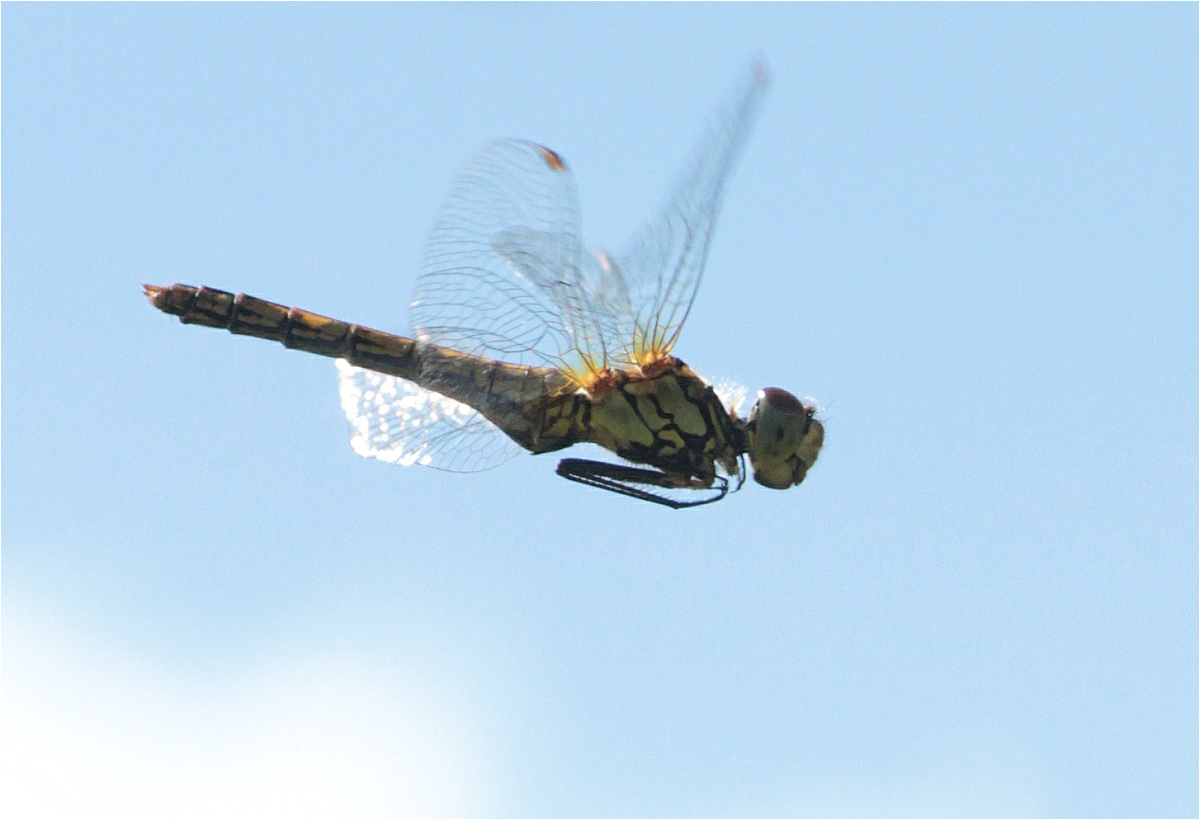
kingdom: Animalia
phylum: Arthropoda
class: Insecta
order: Odonata
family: Libellulidae
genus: Sympetrum
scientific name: Sympetrum sanguineum
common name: Ruddy darter
